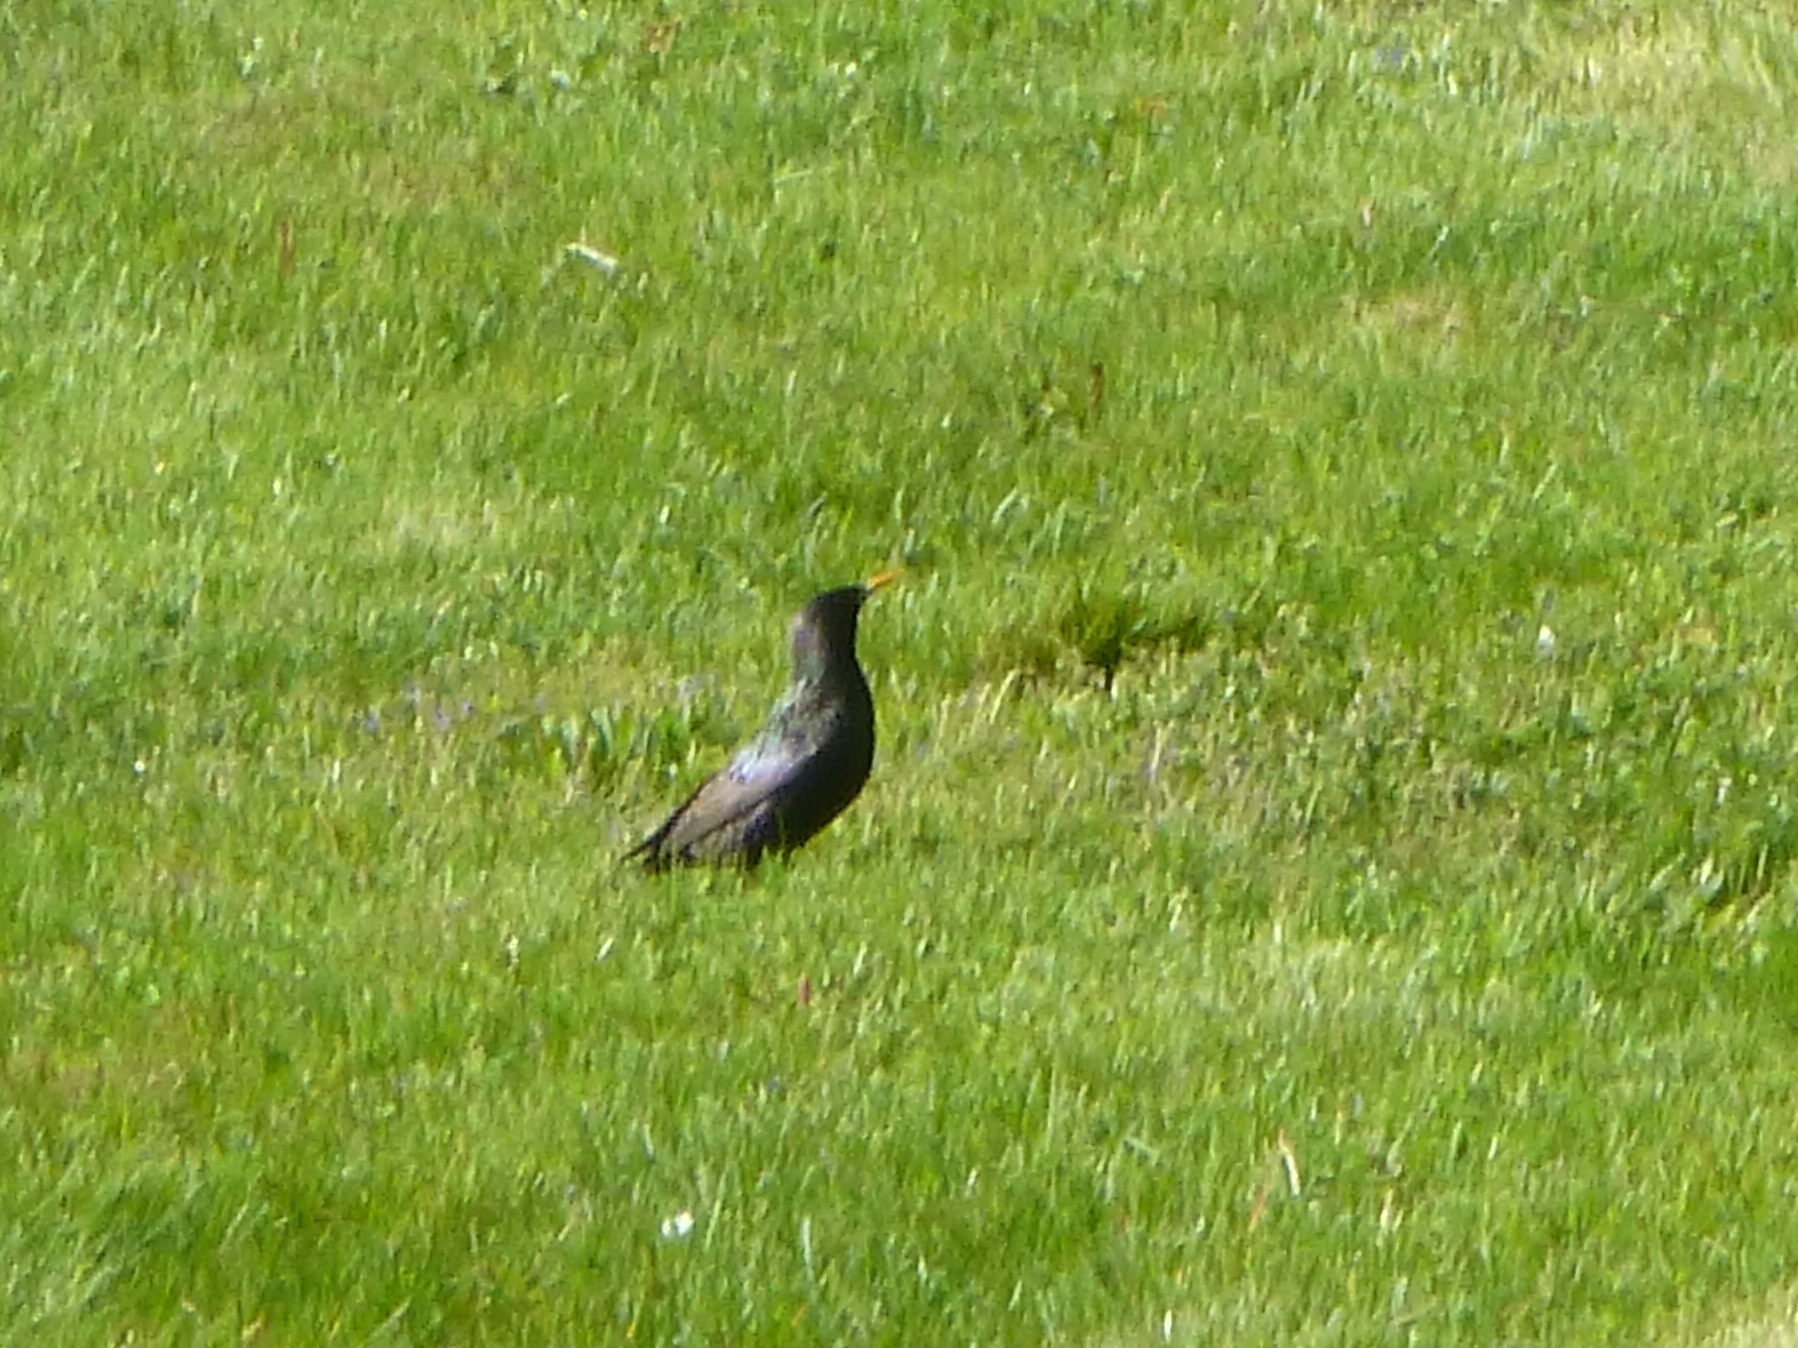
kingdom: Animalia
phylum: Chordata
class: Aves
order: Passeriformes
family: Sturnidae
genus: Sturnus
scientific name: Sturnus vulgaris
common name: Common starling
